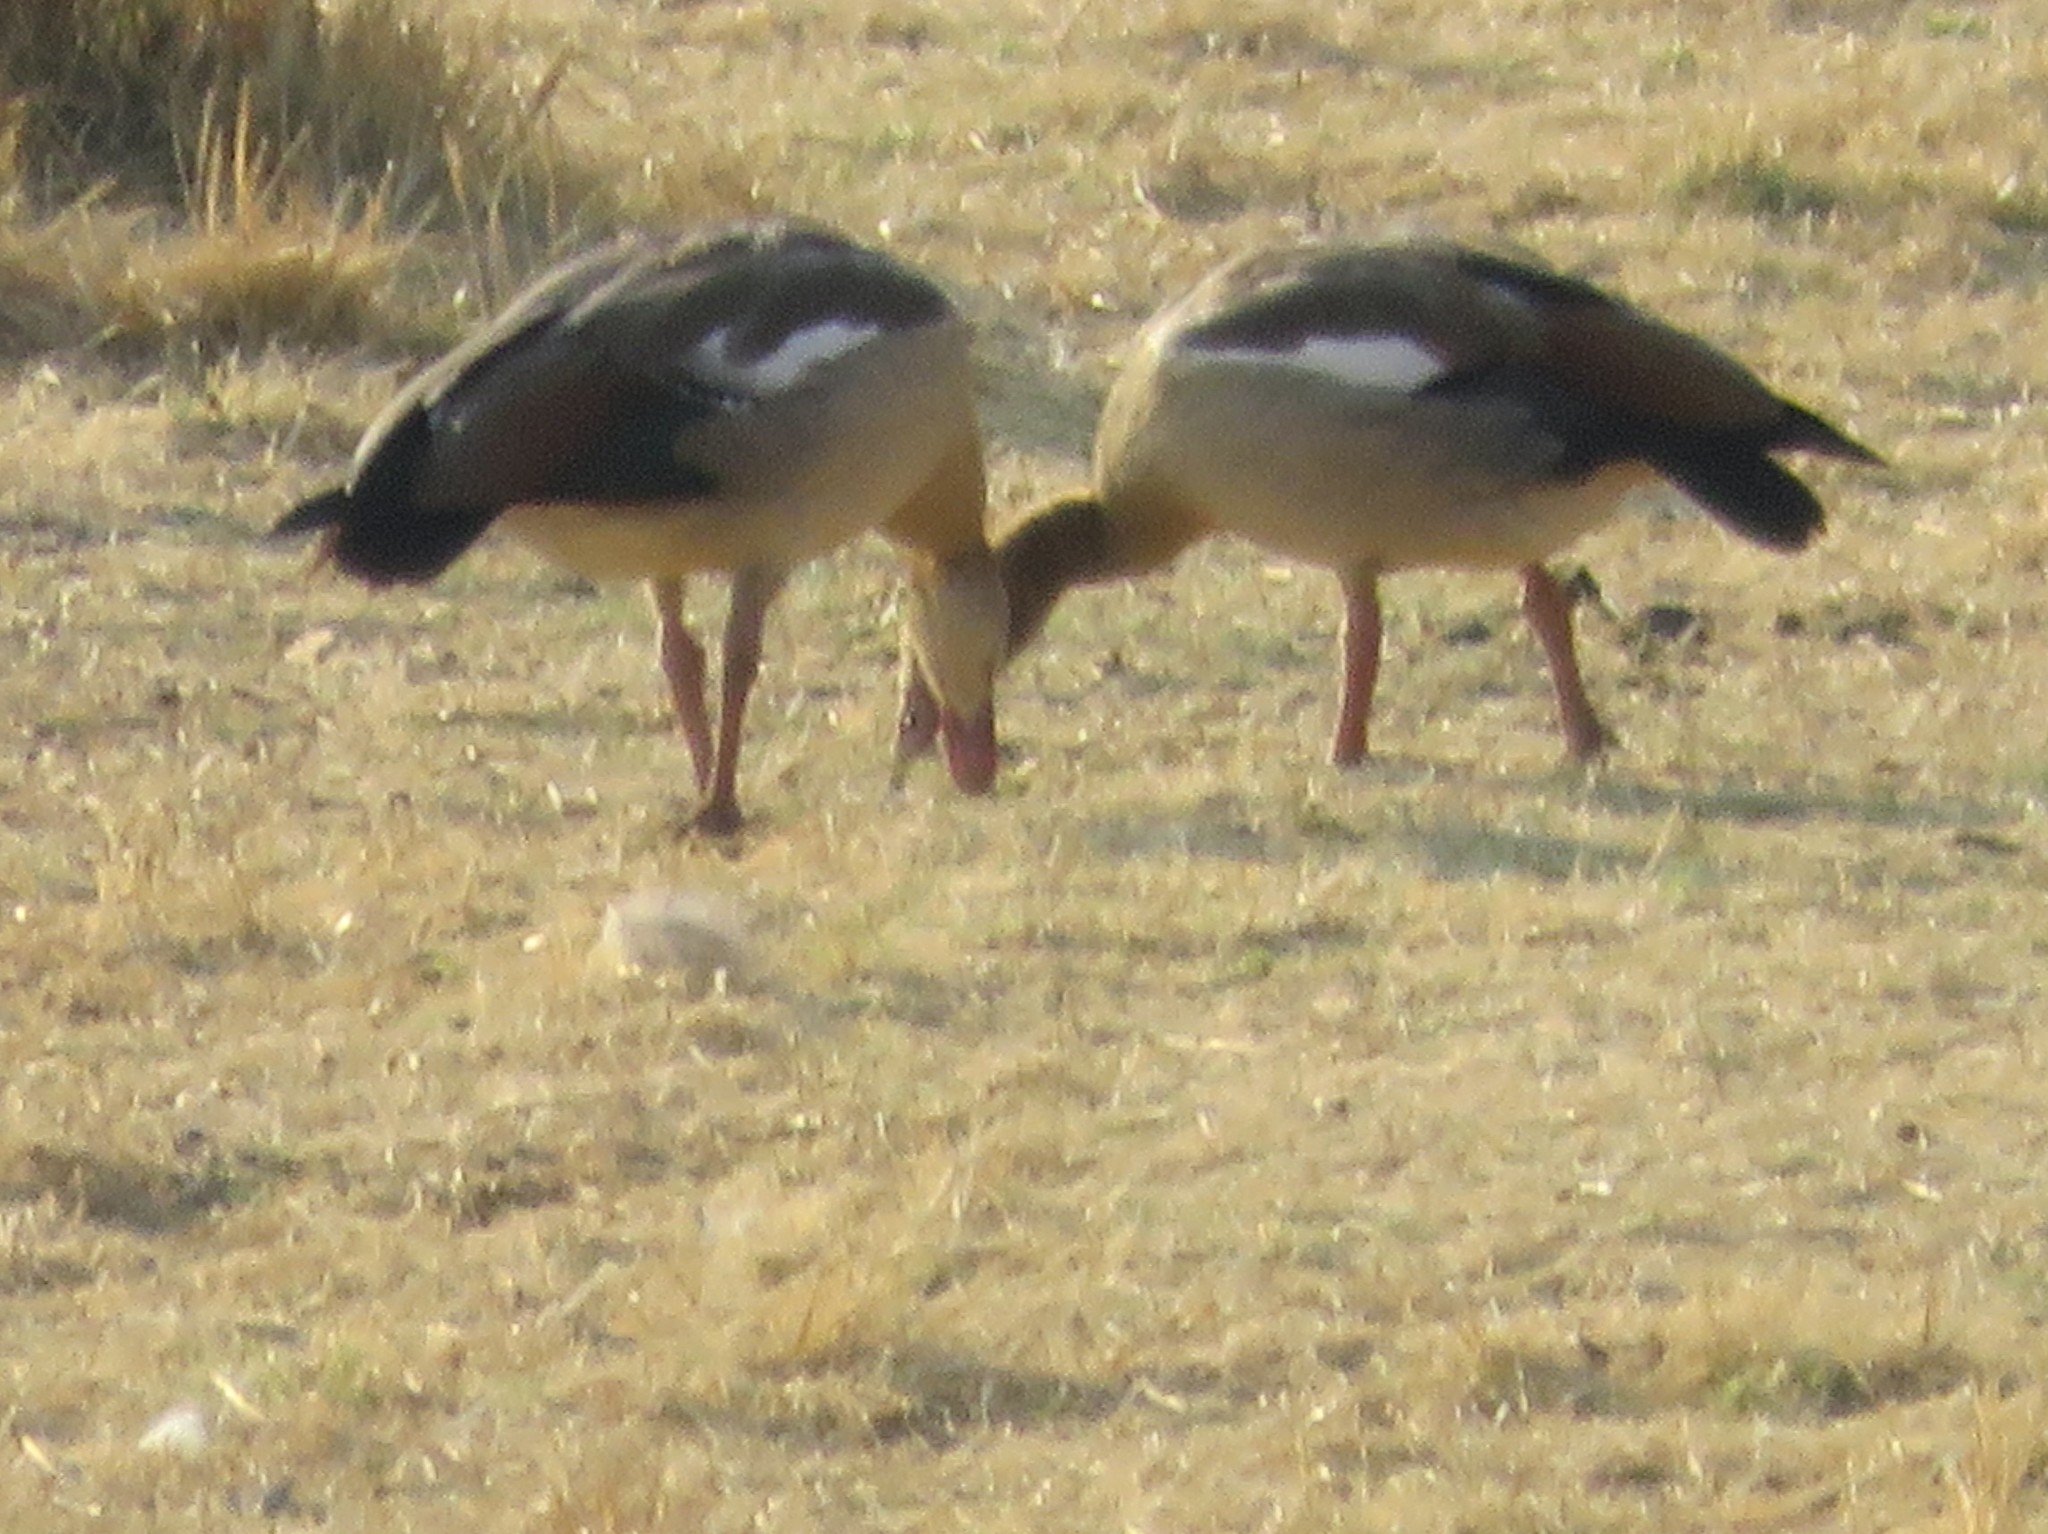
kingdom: Animalia
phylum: Chordata
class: Aves
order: Anseriformes
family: Anatidae
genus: Alopochen
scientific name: Alopochen aegyptiaca
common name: Egyptian goose
